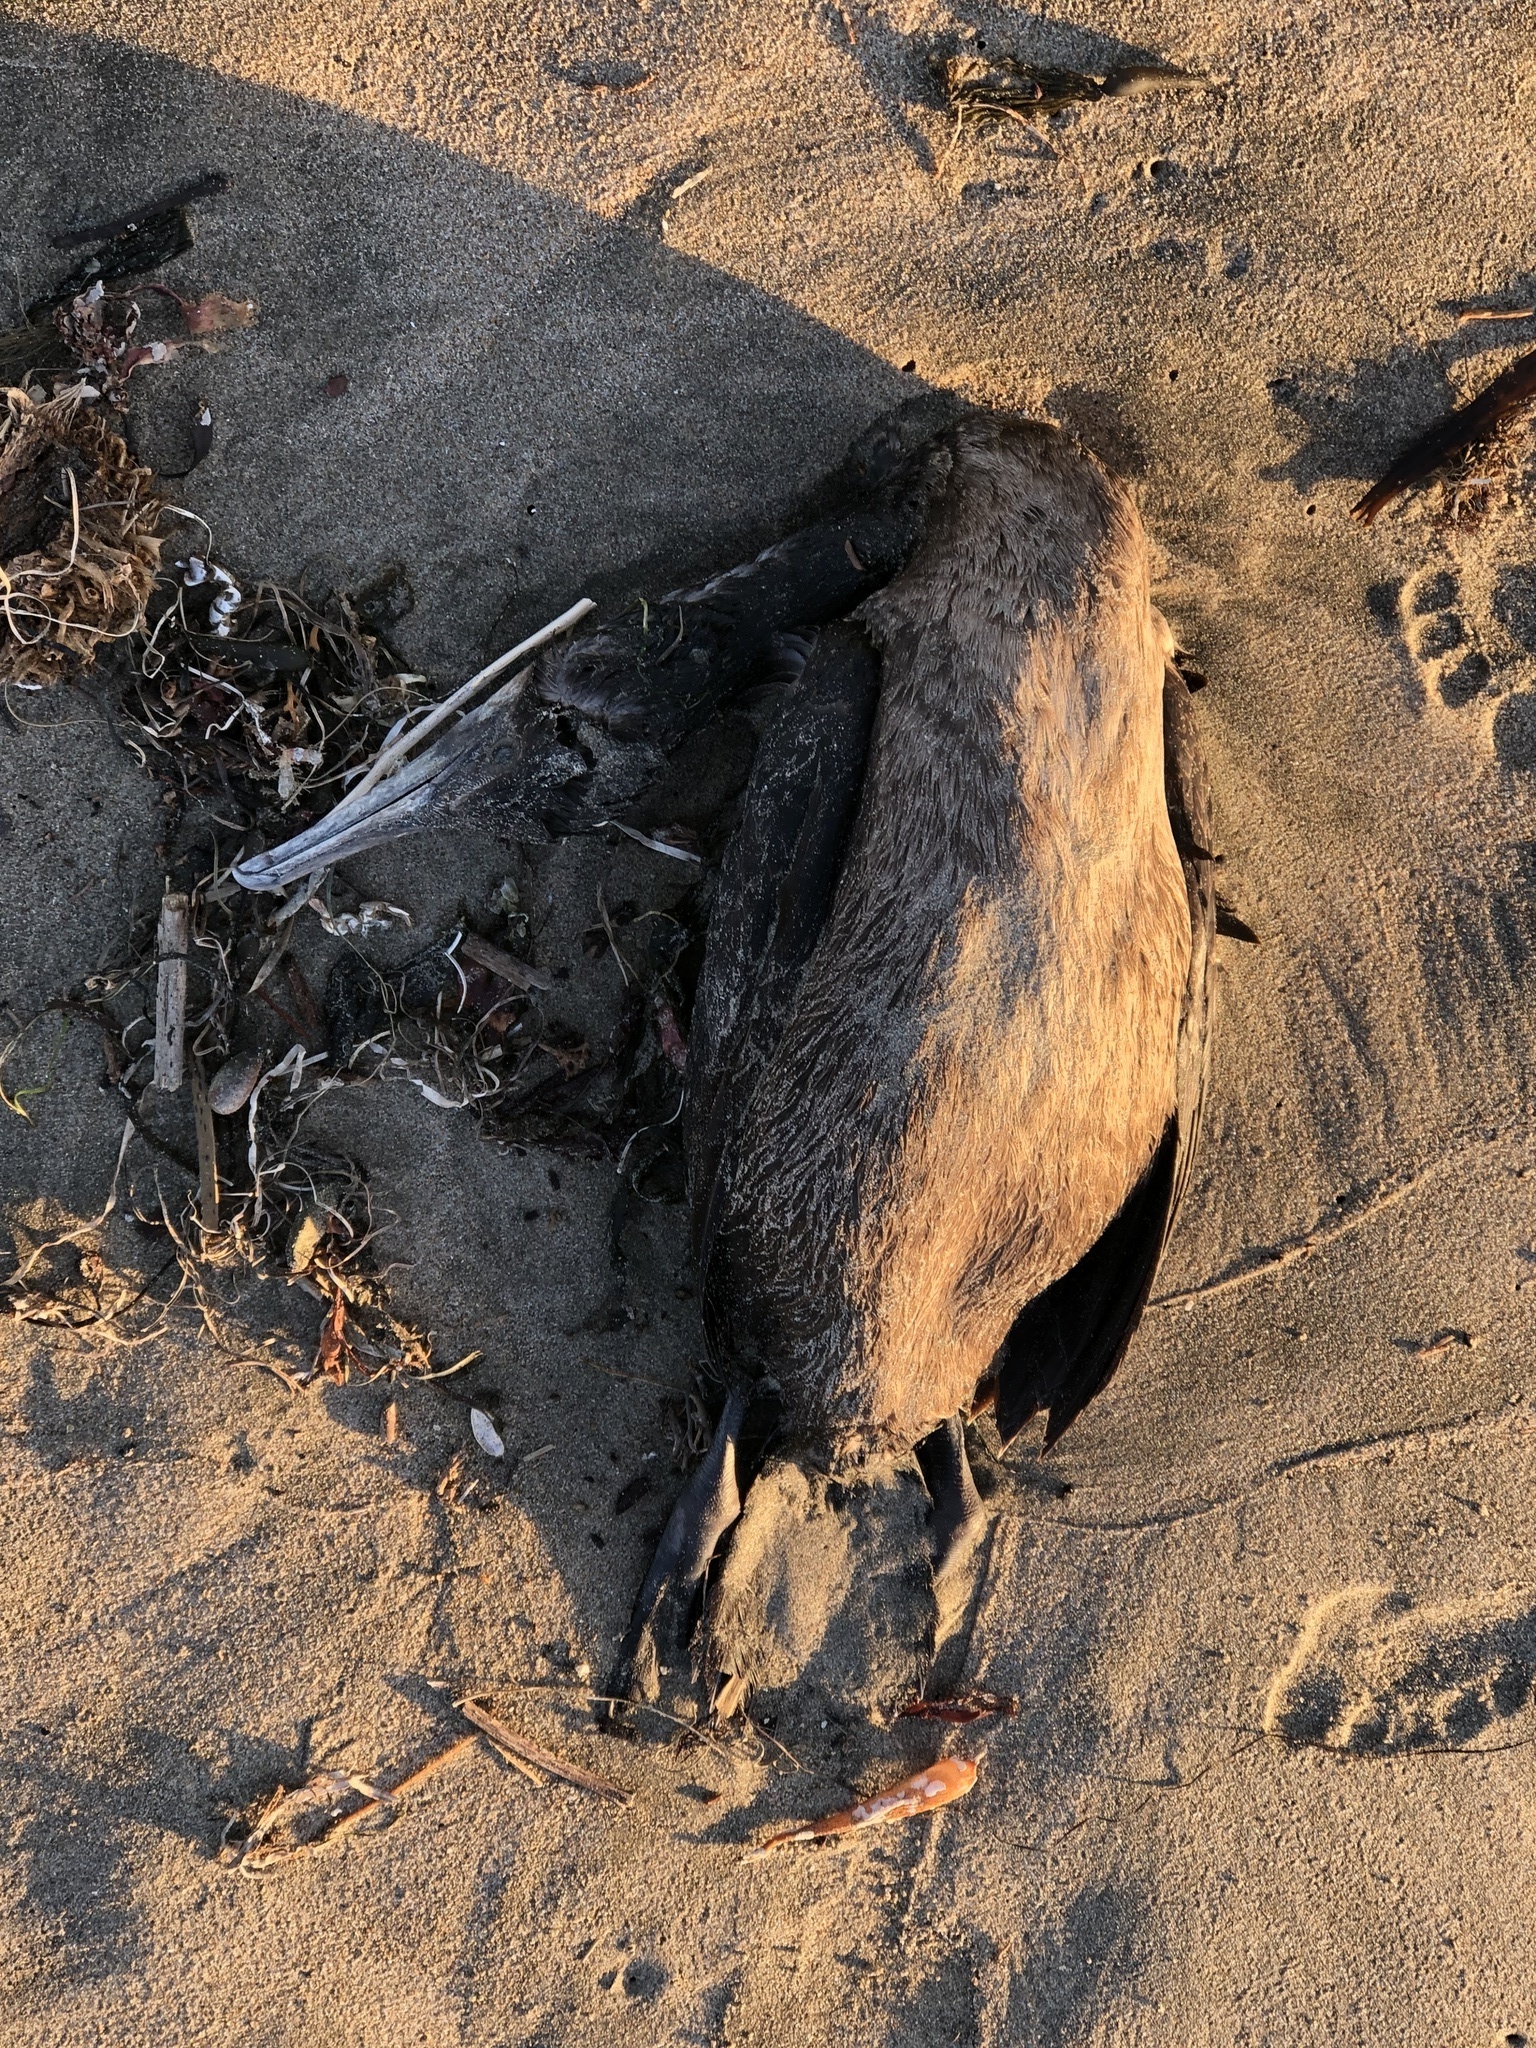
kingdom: Animalia
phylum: Chordata
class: Aves
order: Suliformes
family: Phalacrocoracidae
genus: Urile
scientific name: Urile penicillatus
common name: Brandt's cormorant
